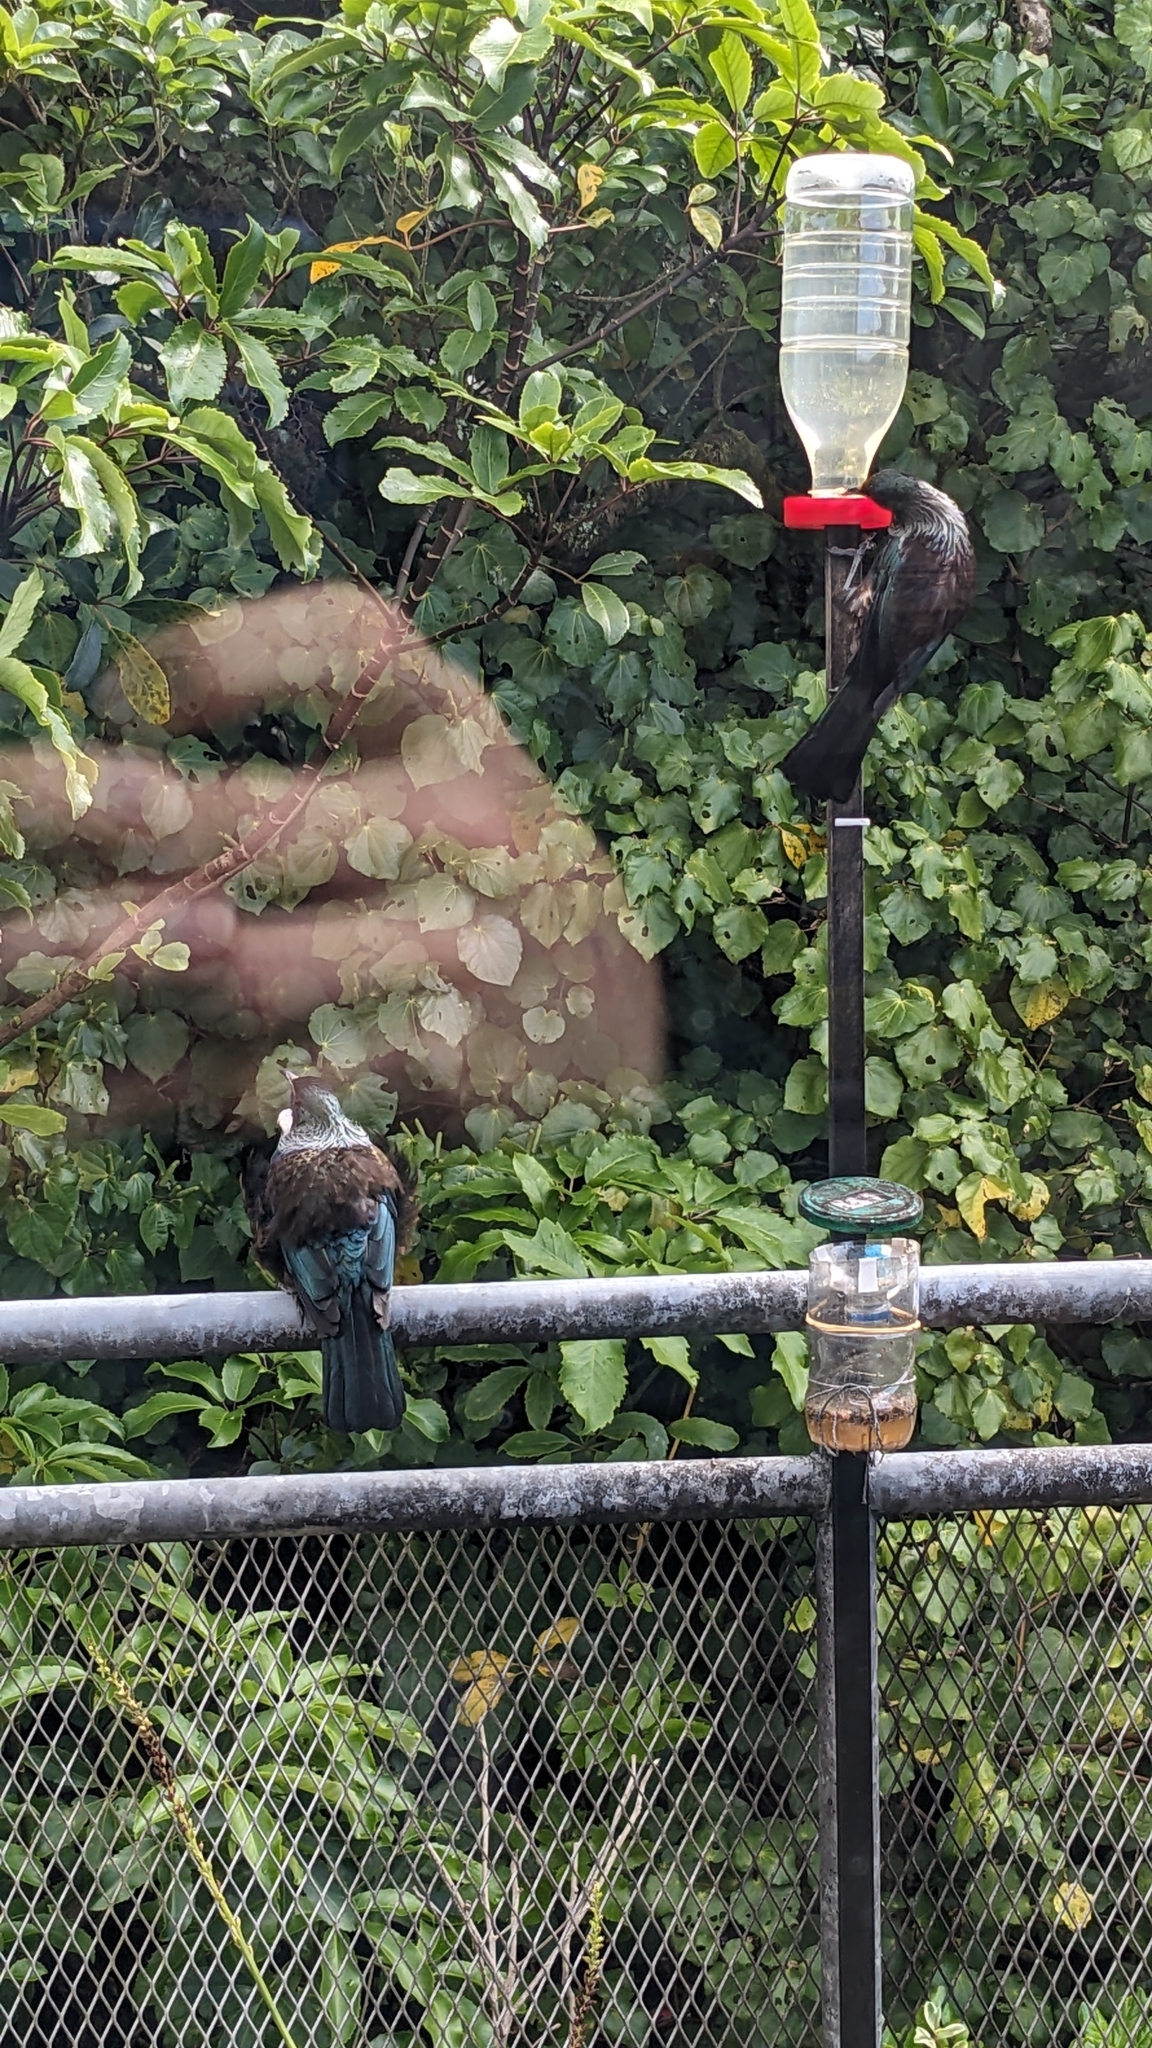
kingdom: Animalia
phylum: Chordata
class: Aves
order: Passeriformes
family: Meliphagidae
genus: Prosthemadera
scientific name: Prosthemadera novaeseelandiae
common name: Tui
